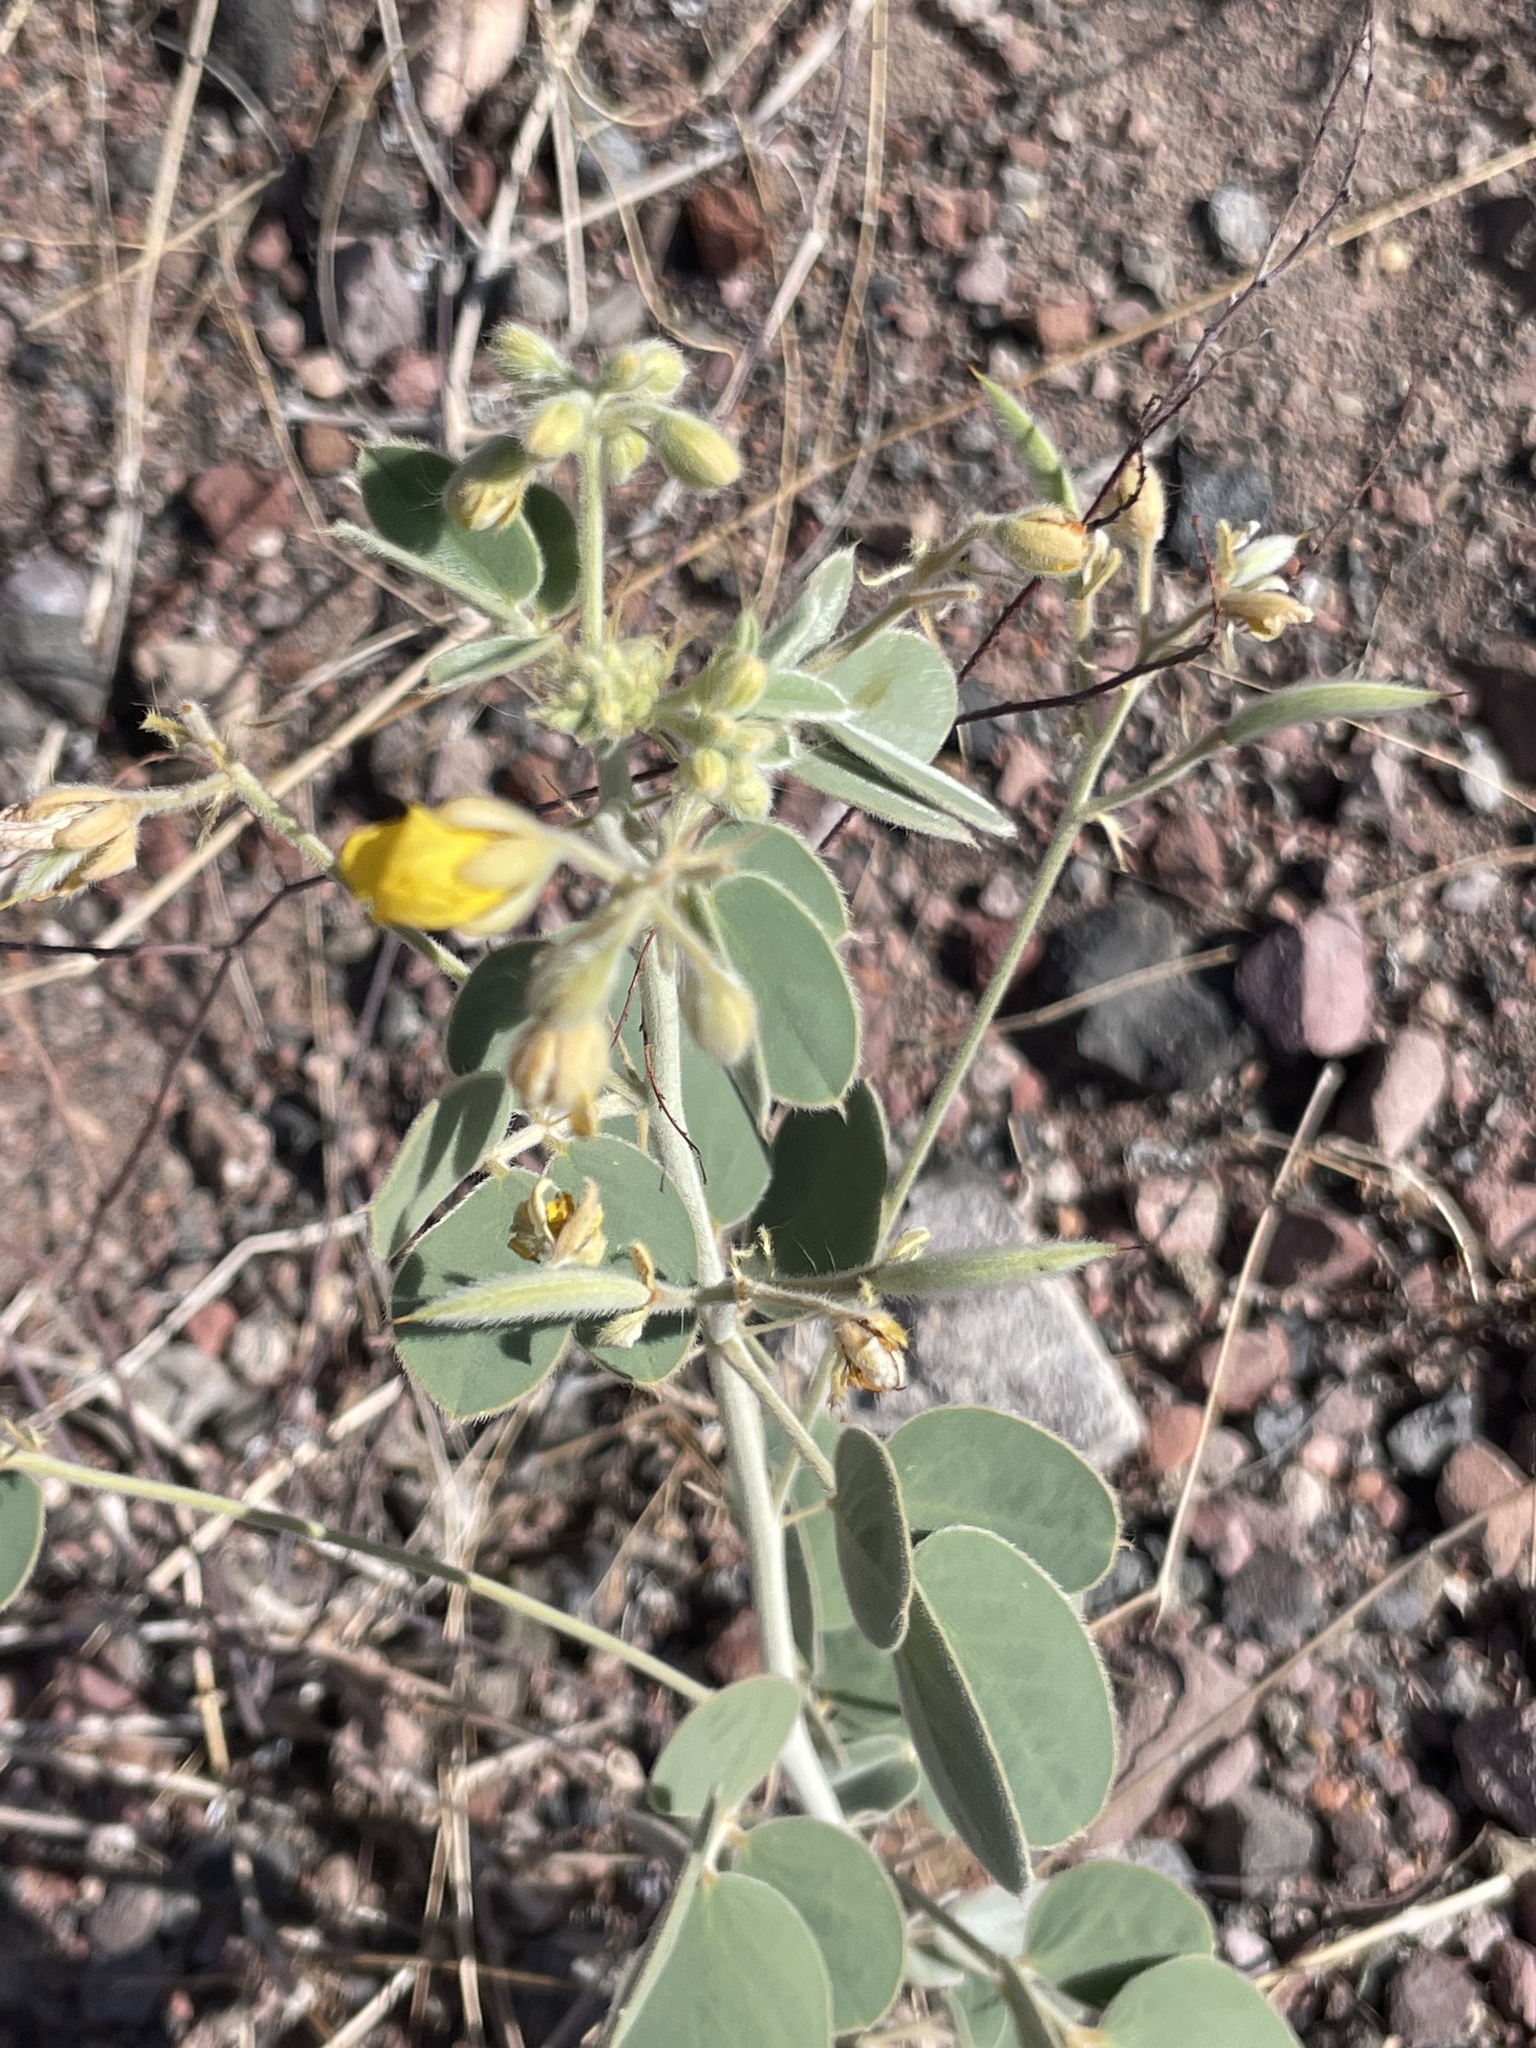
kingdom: Plantae
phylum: Tracheophyta
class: Magnoliopsida
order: Fabales
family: Fabaceae
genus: Senna
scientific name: Senna confinis
